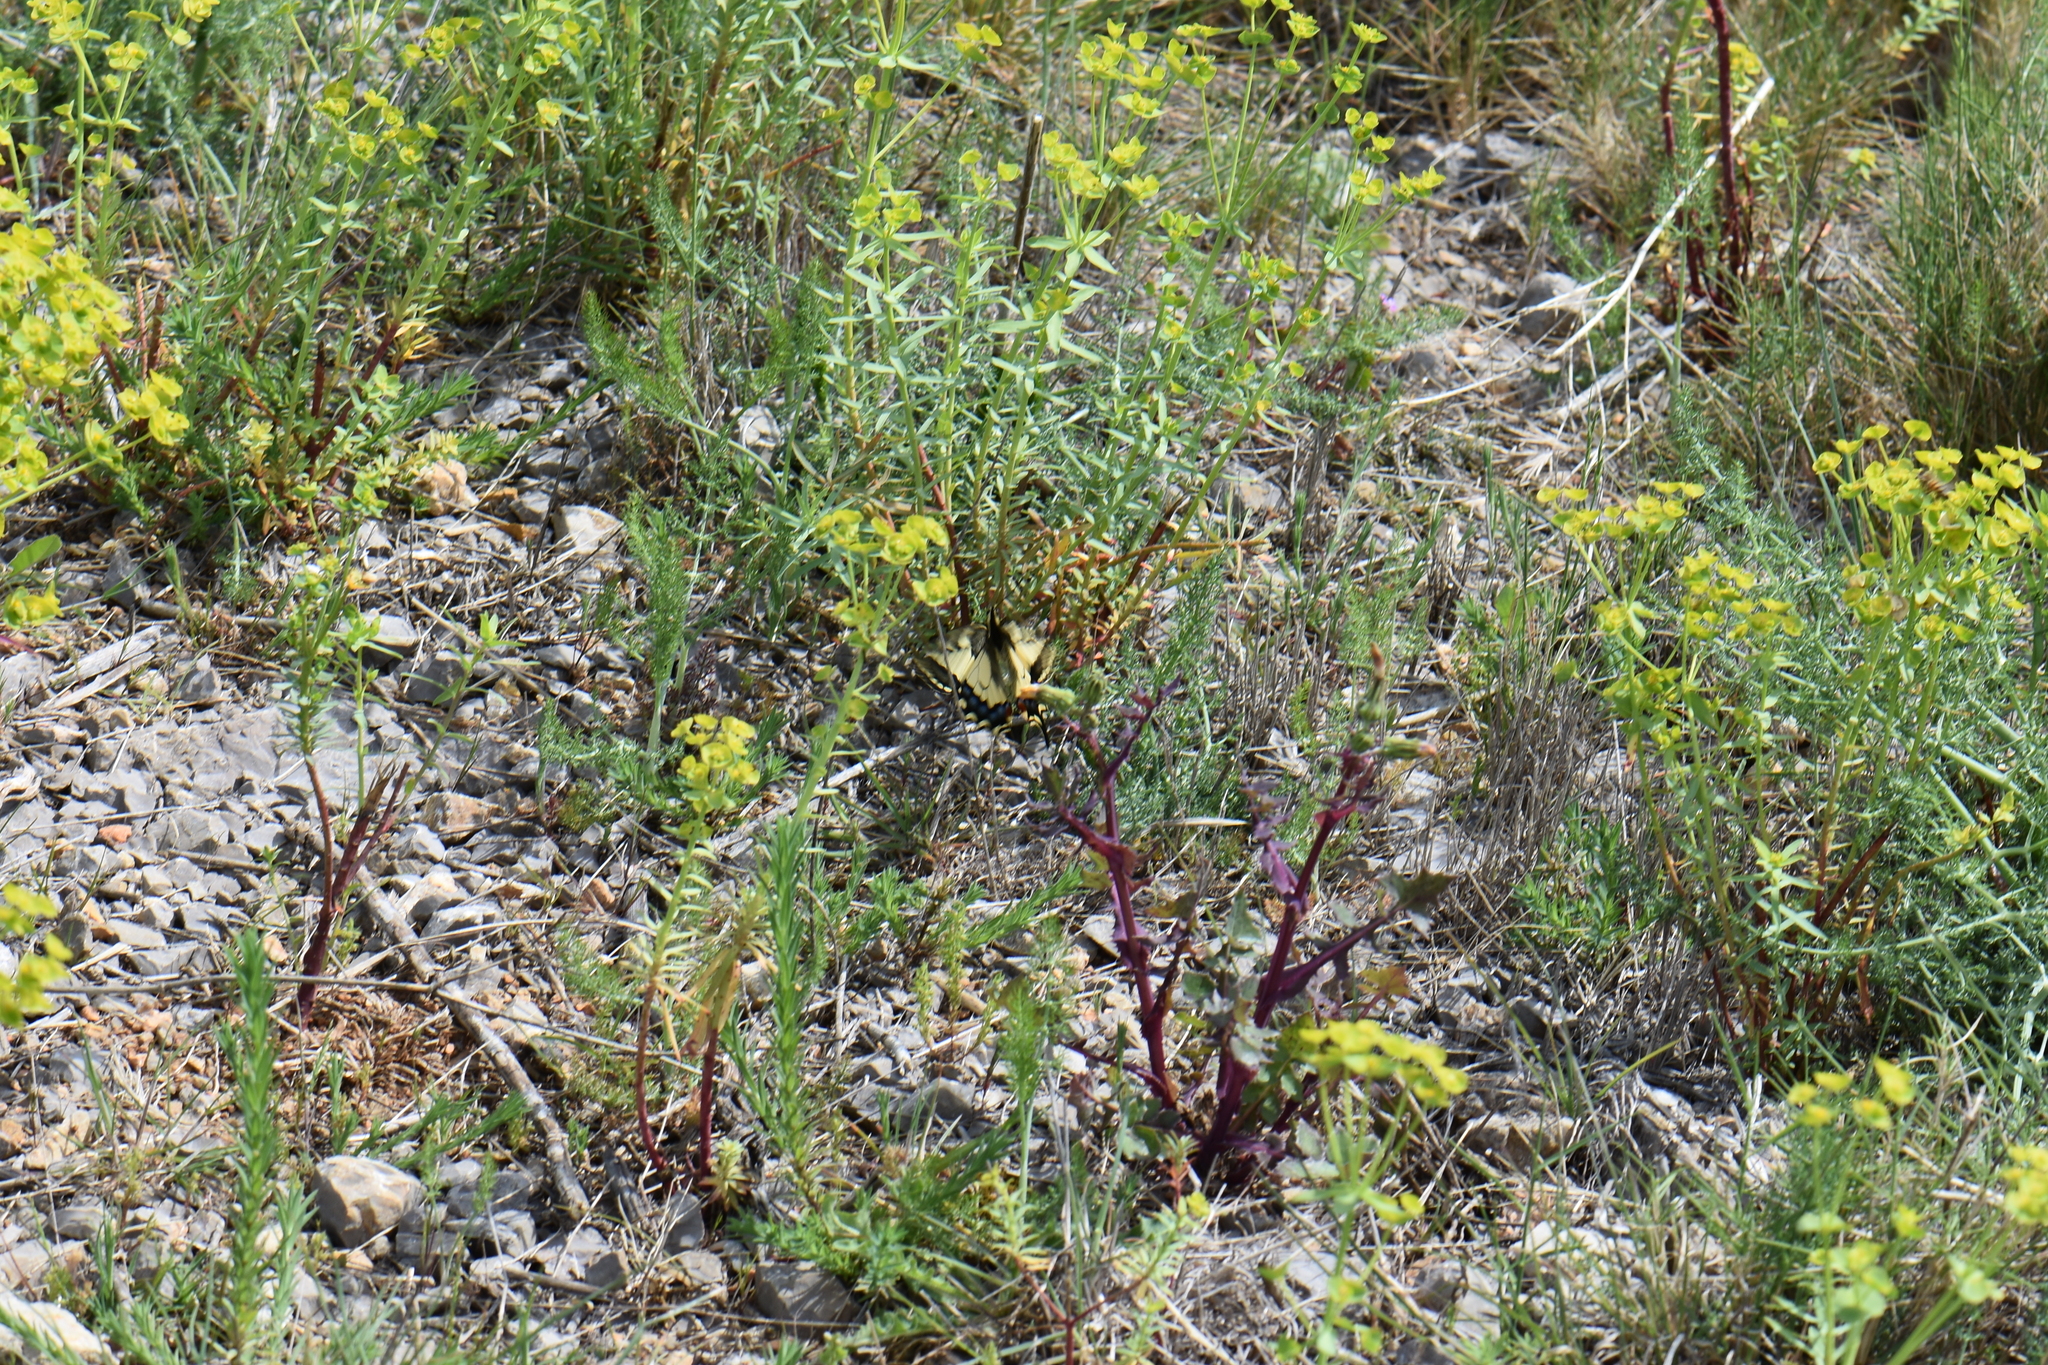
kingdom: Animalia
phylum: Arthropoda
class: Insecta
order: Lepidoptera
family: Papilionidae
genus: Papilio
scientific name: Papilio machaon
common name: Swallowtail
